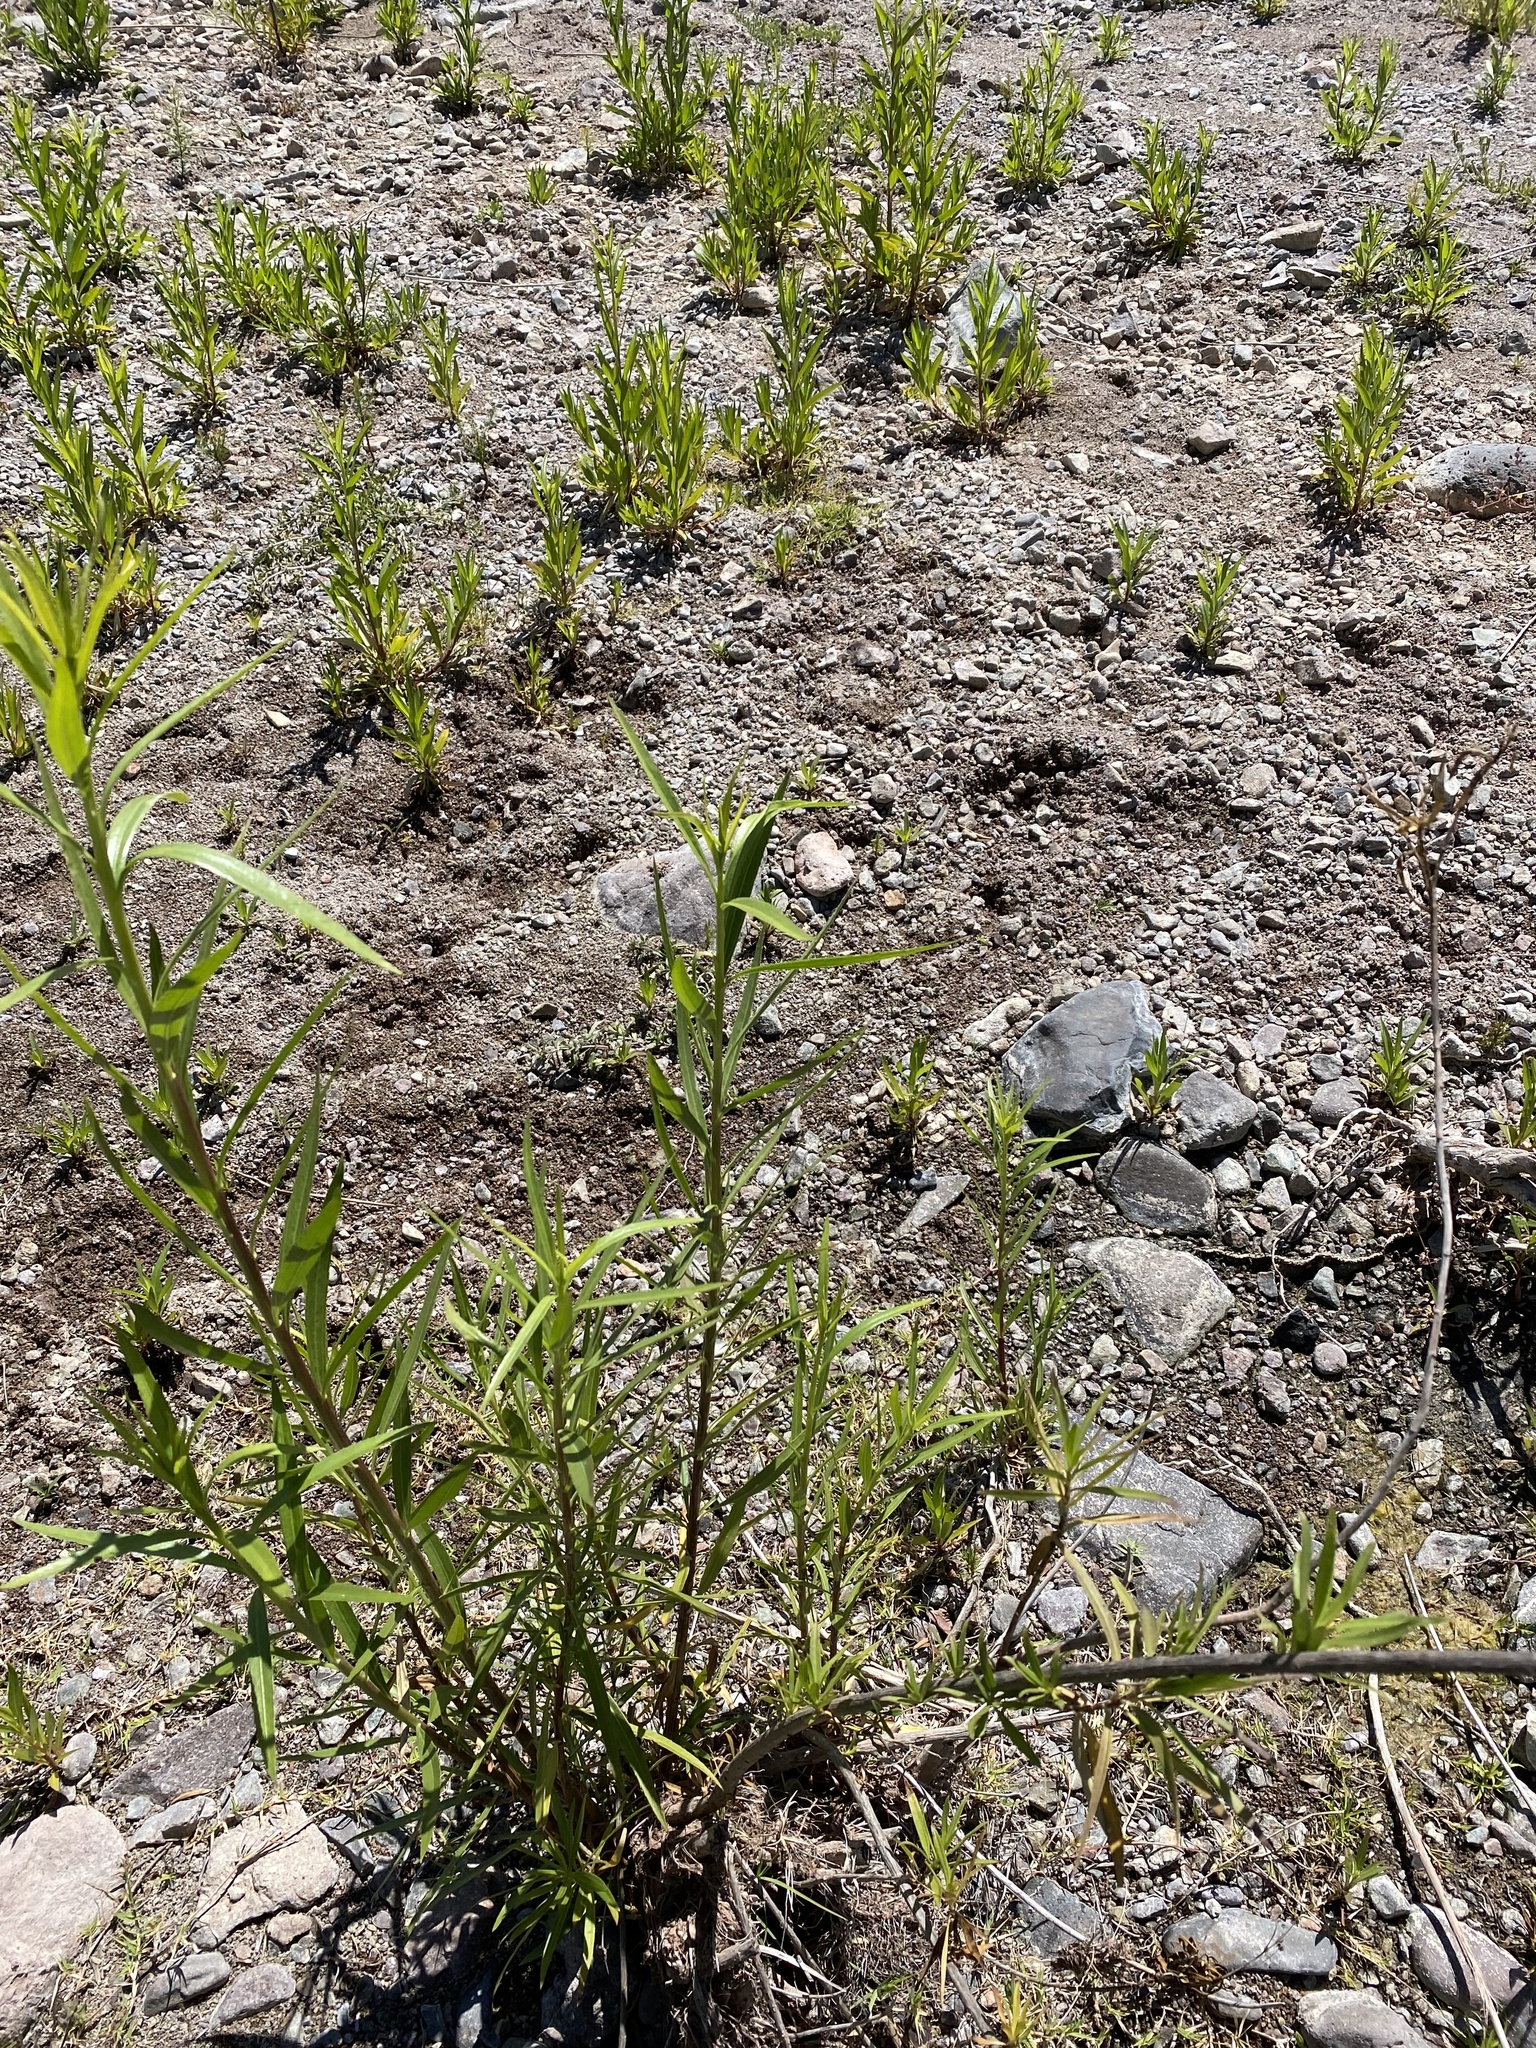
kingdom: Plantae
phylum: Tracheophyta
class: Magnoliopsida
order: Asterales
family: Asteraceae
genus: Baccharis
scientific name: Baccharis salicifolia
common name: Sticky baccharis
